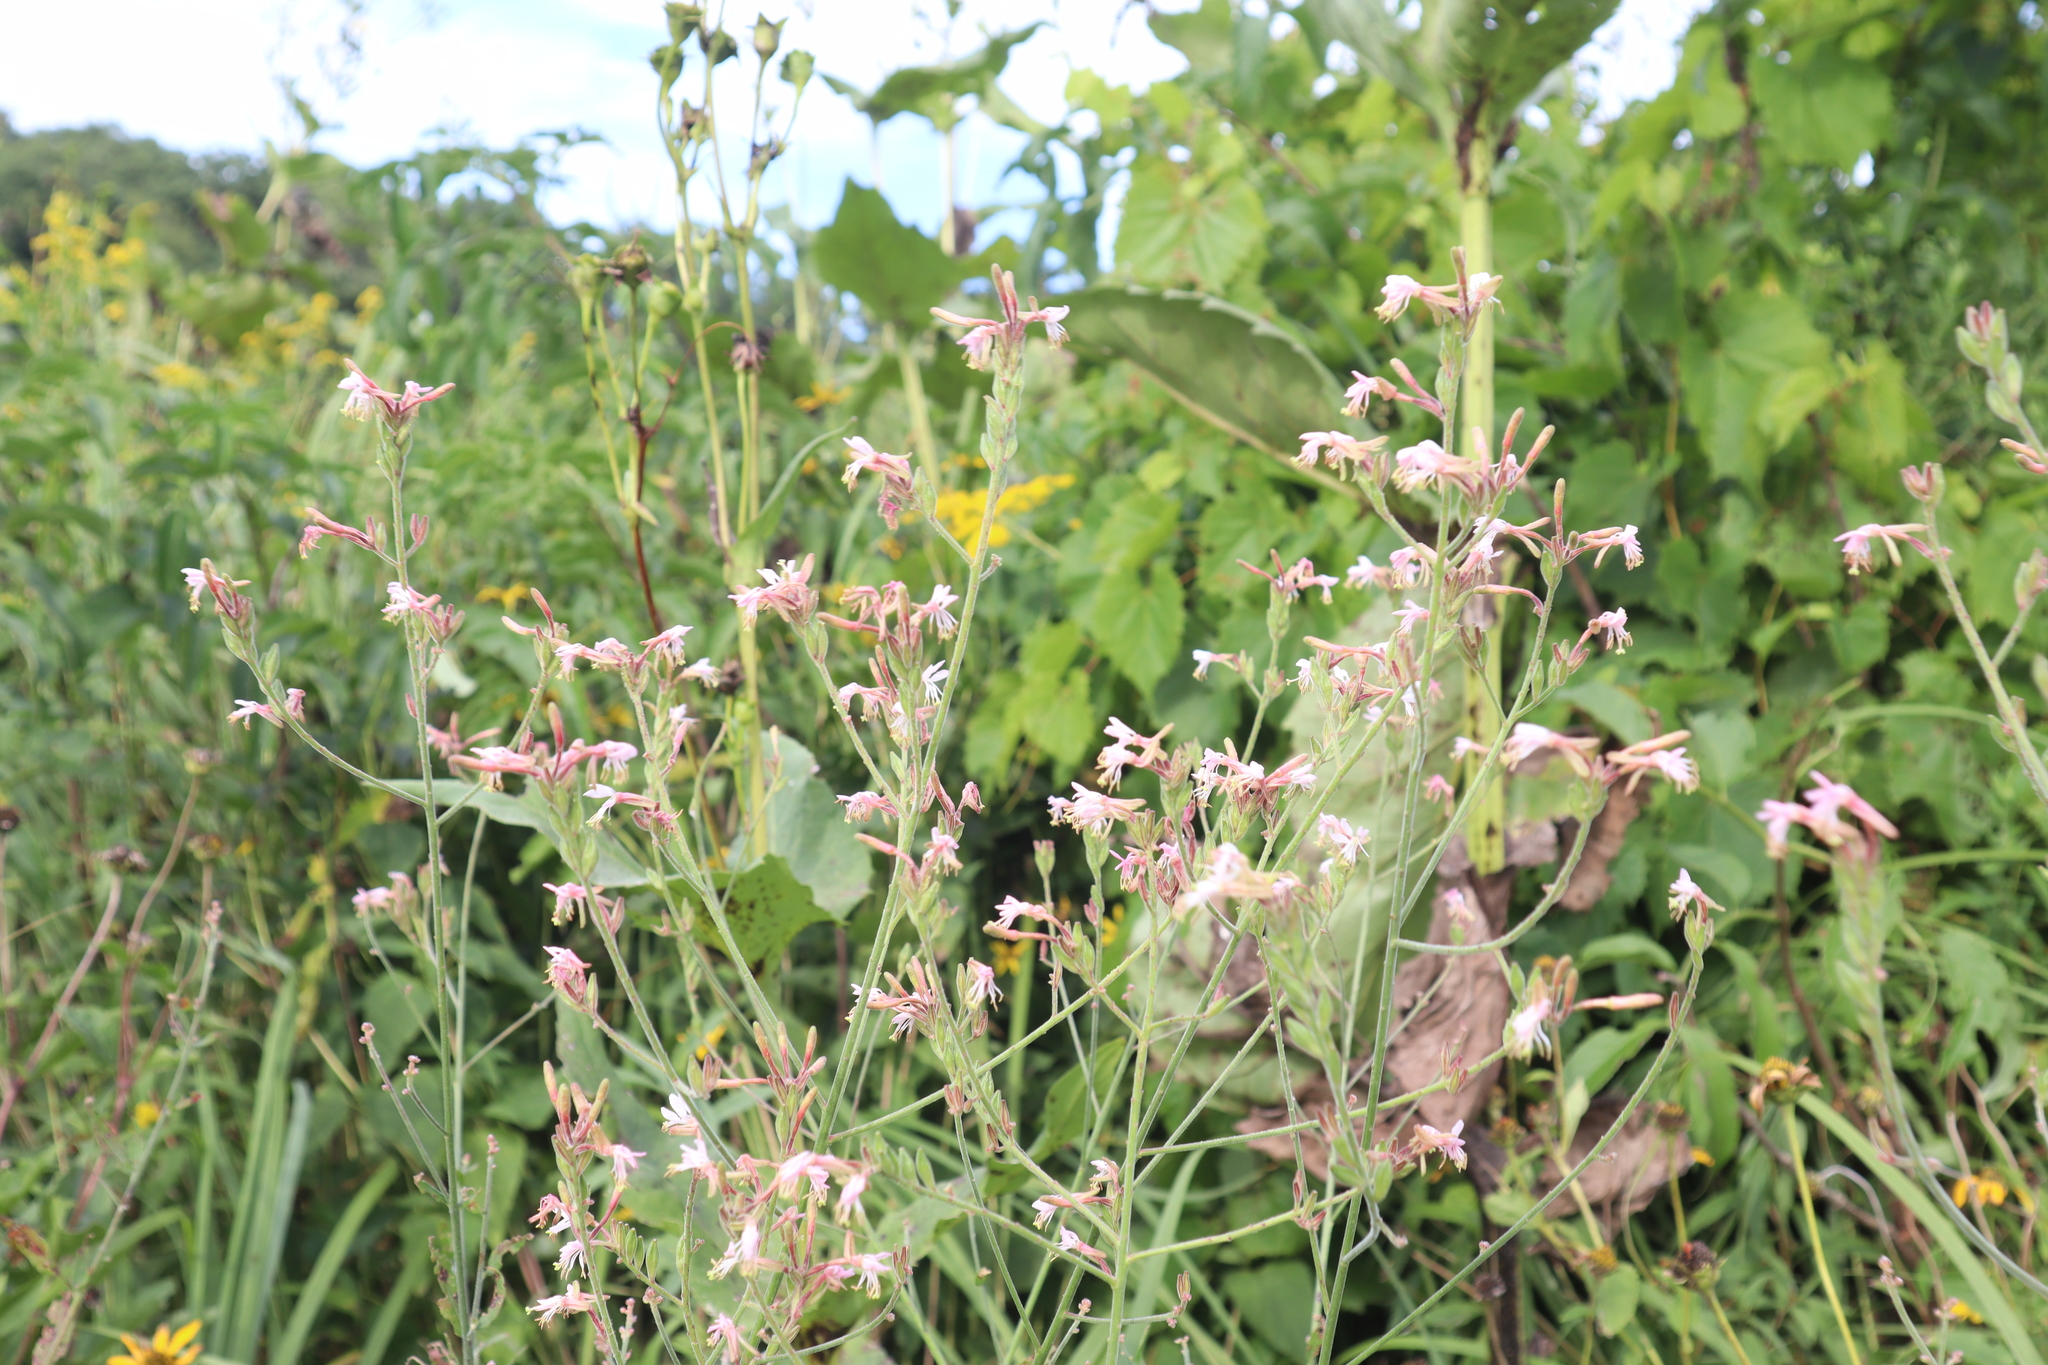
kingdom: Plantae
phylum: Tracheophyta
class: Magnoliopsida
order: Myrtales
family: Onagraceae
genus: Oenothera
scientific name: Oenothera gaura
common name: Biennial beeblossom
